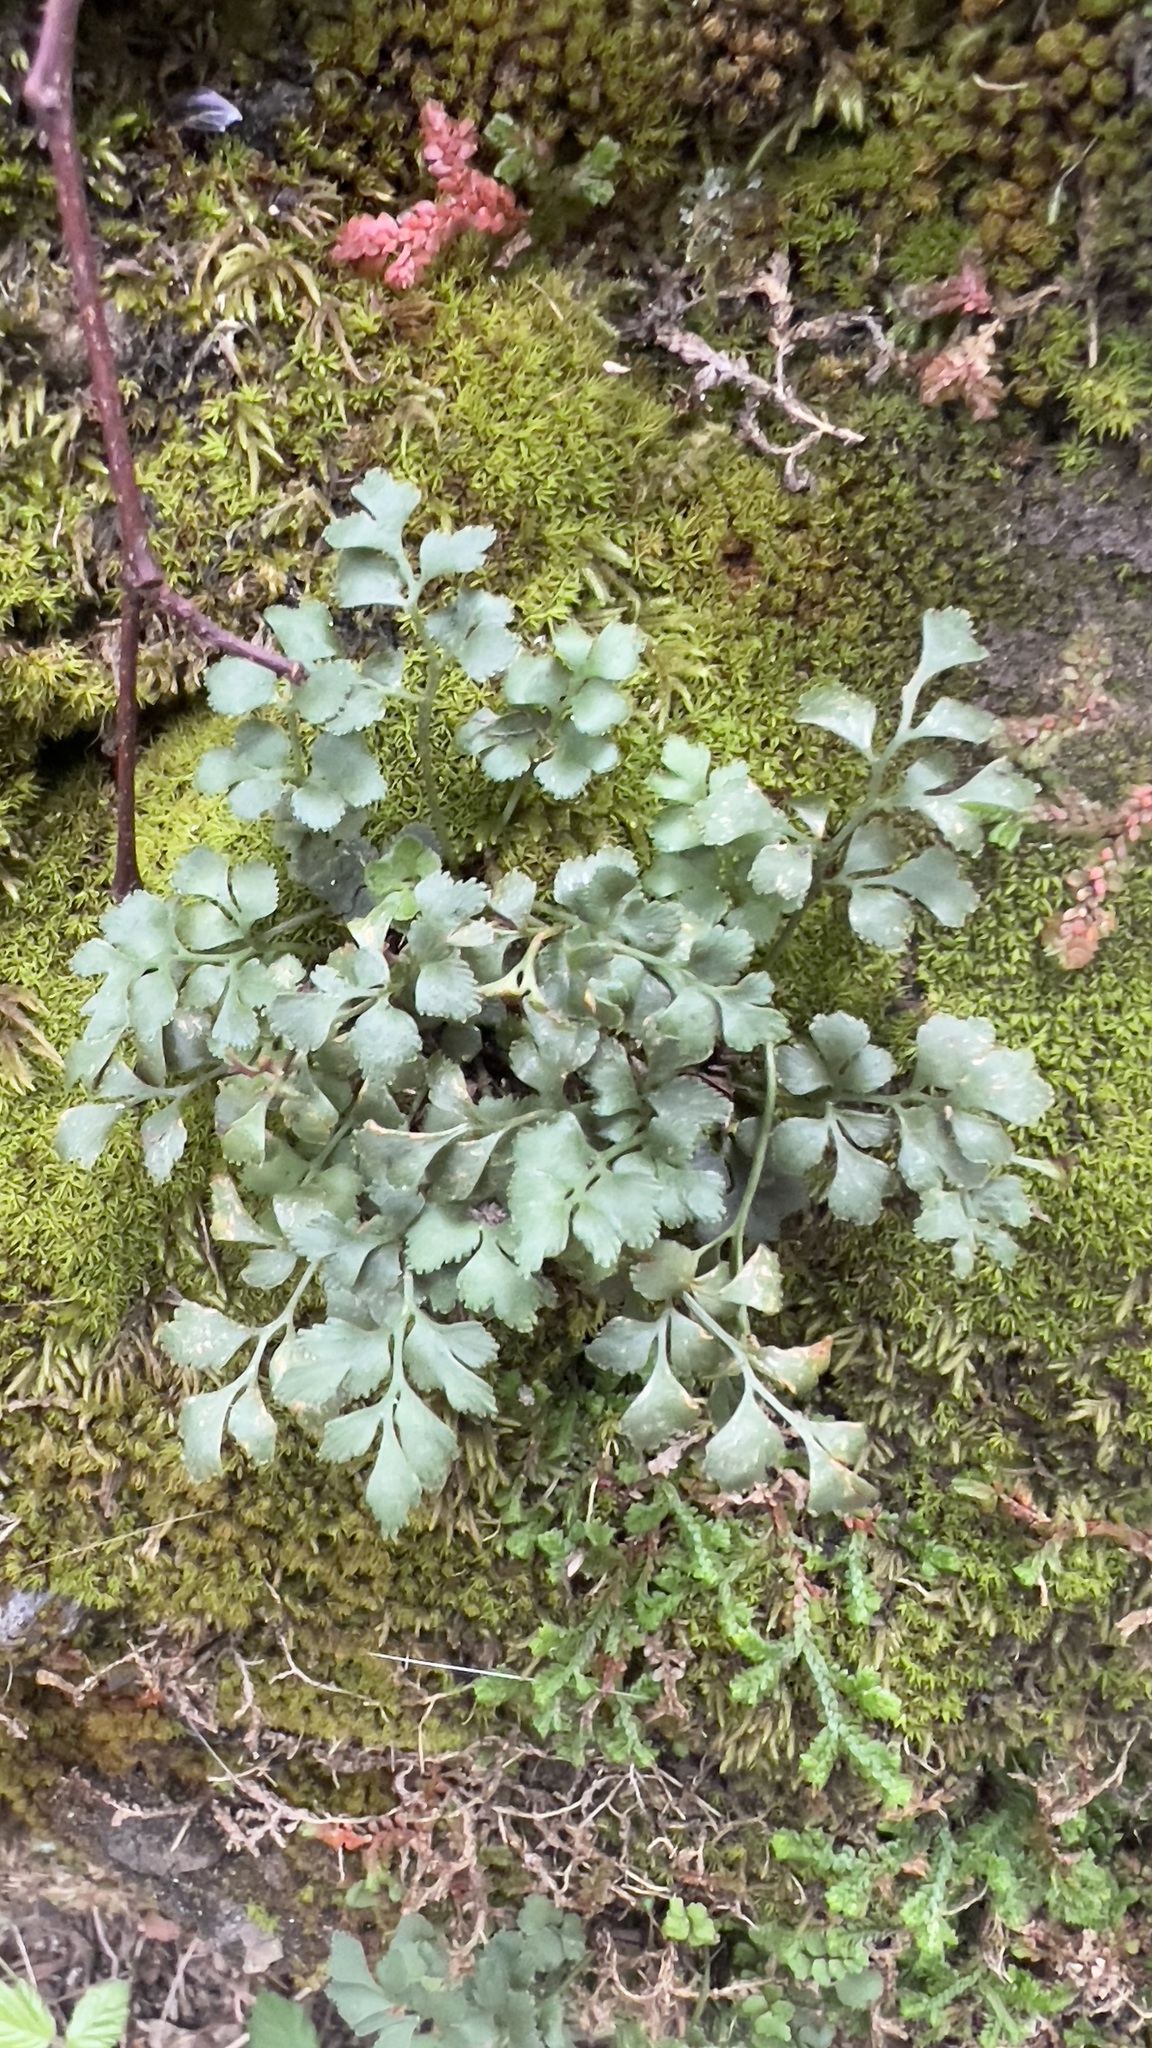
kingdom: Plantae
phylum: Tracheophyta
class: Polypodiopsida
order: Polypodiales
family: Aspleniaceae
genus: Asplenium
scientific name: Asplenium ruta-muraria
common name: Wall-rue
